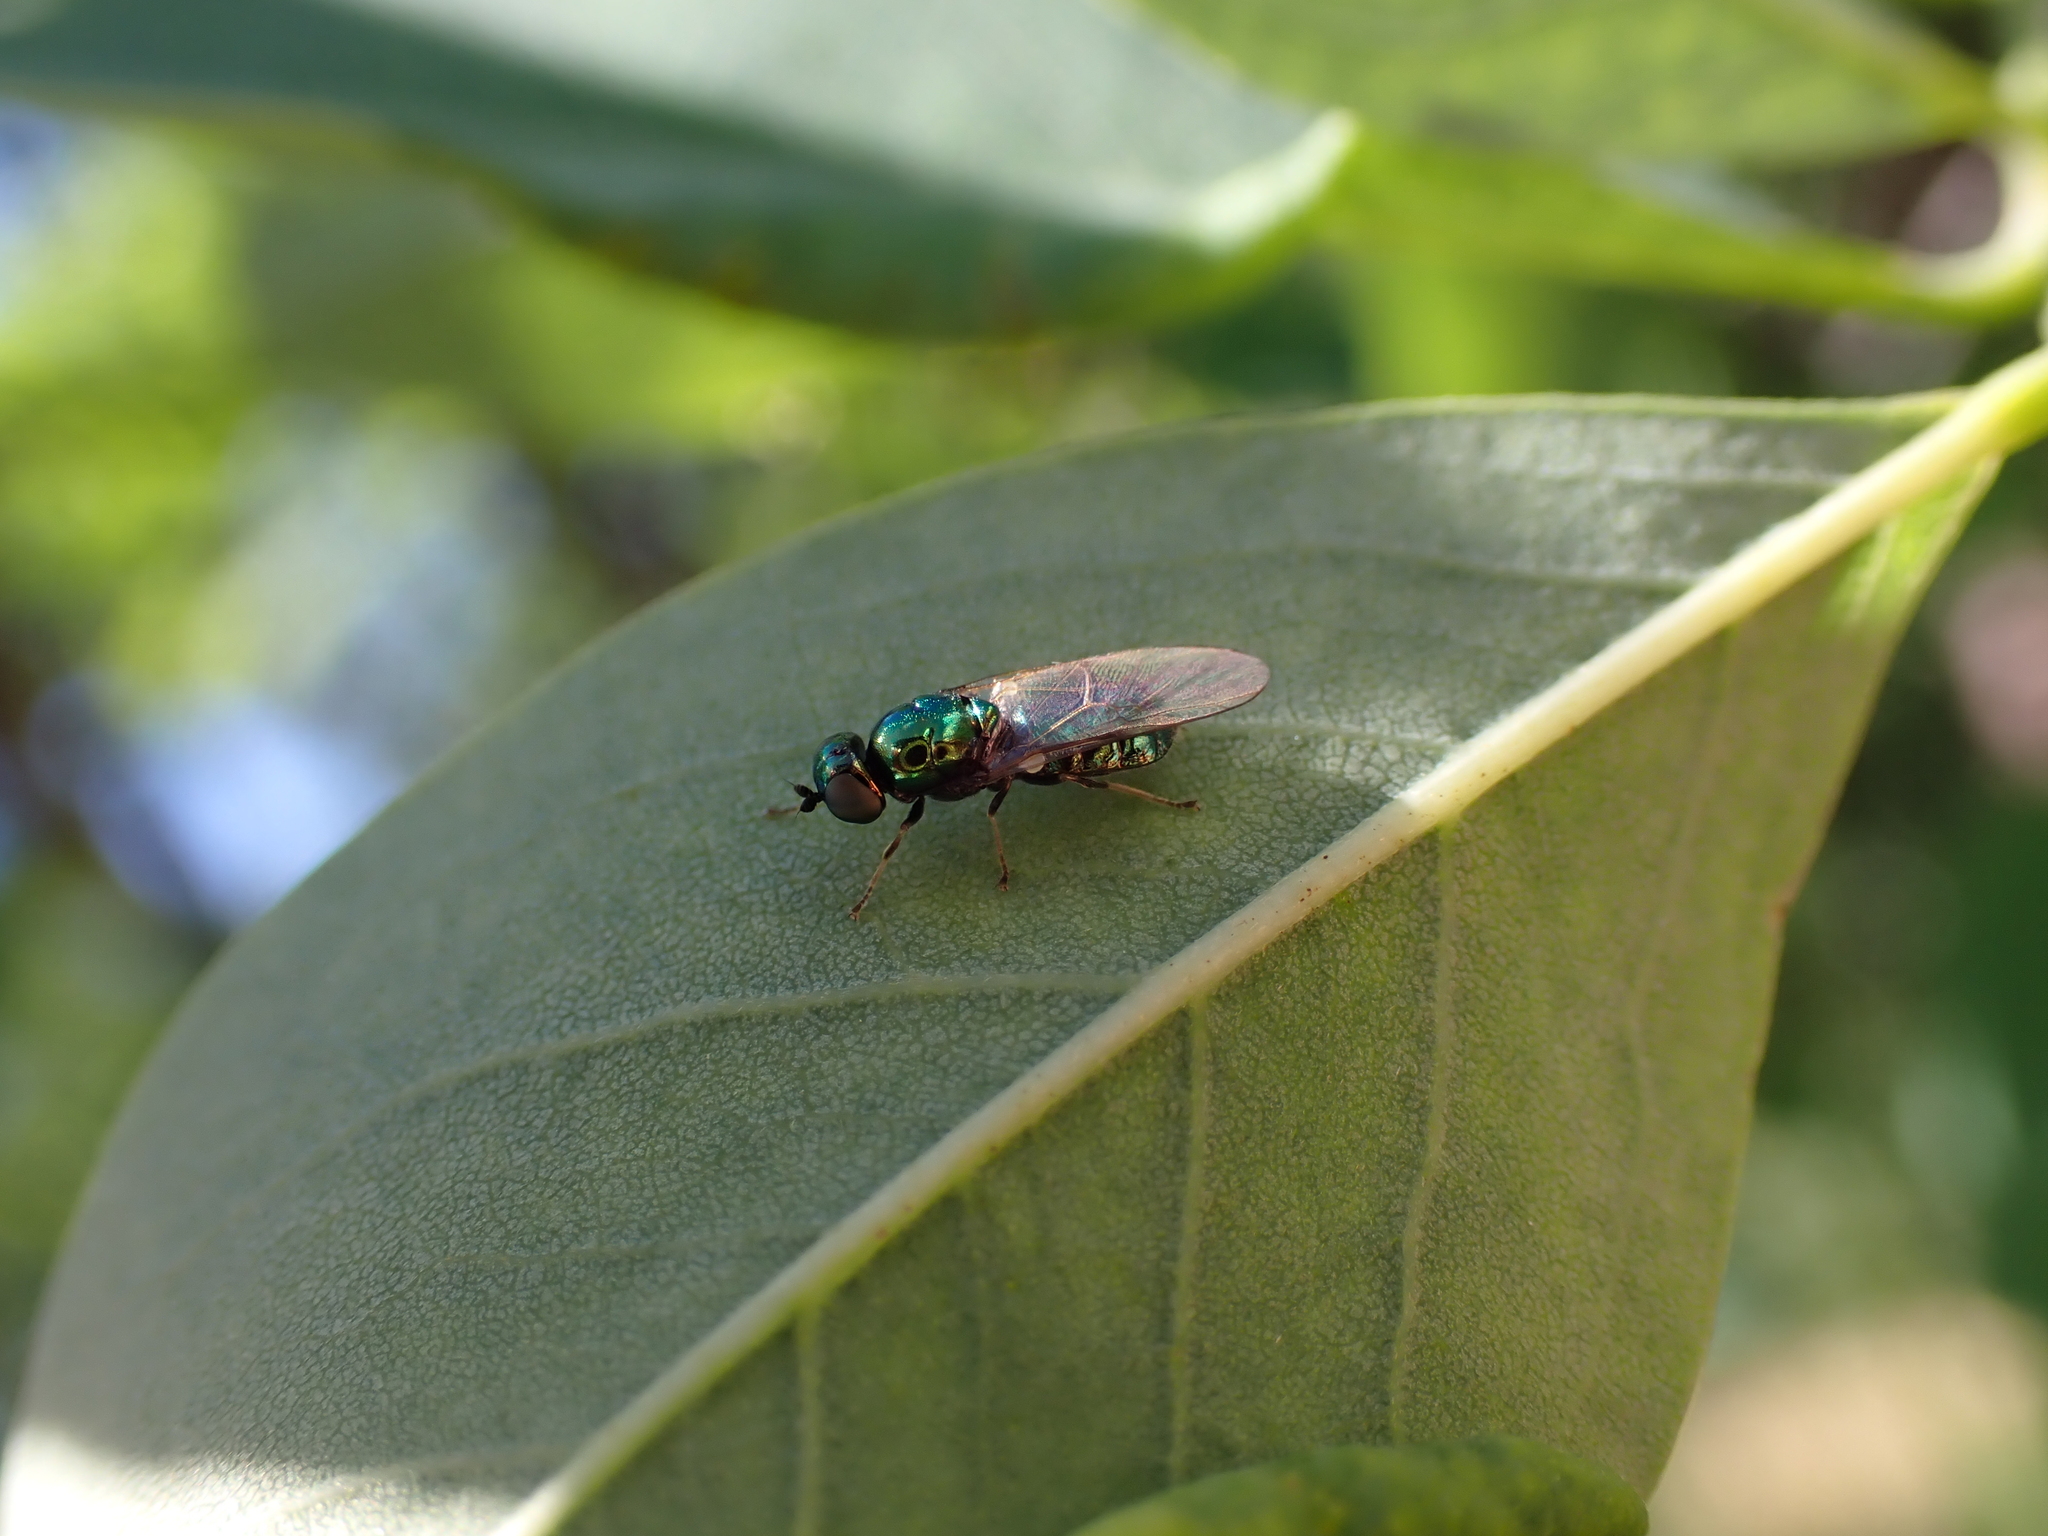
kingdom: Animalia
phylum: Arthropoda
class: Insecta
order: Diptera
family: Stratiomyidae
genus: Microchrysa
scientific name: Microchrysa polita
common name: Black-horned gem
